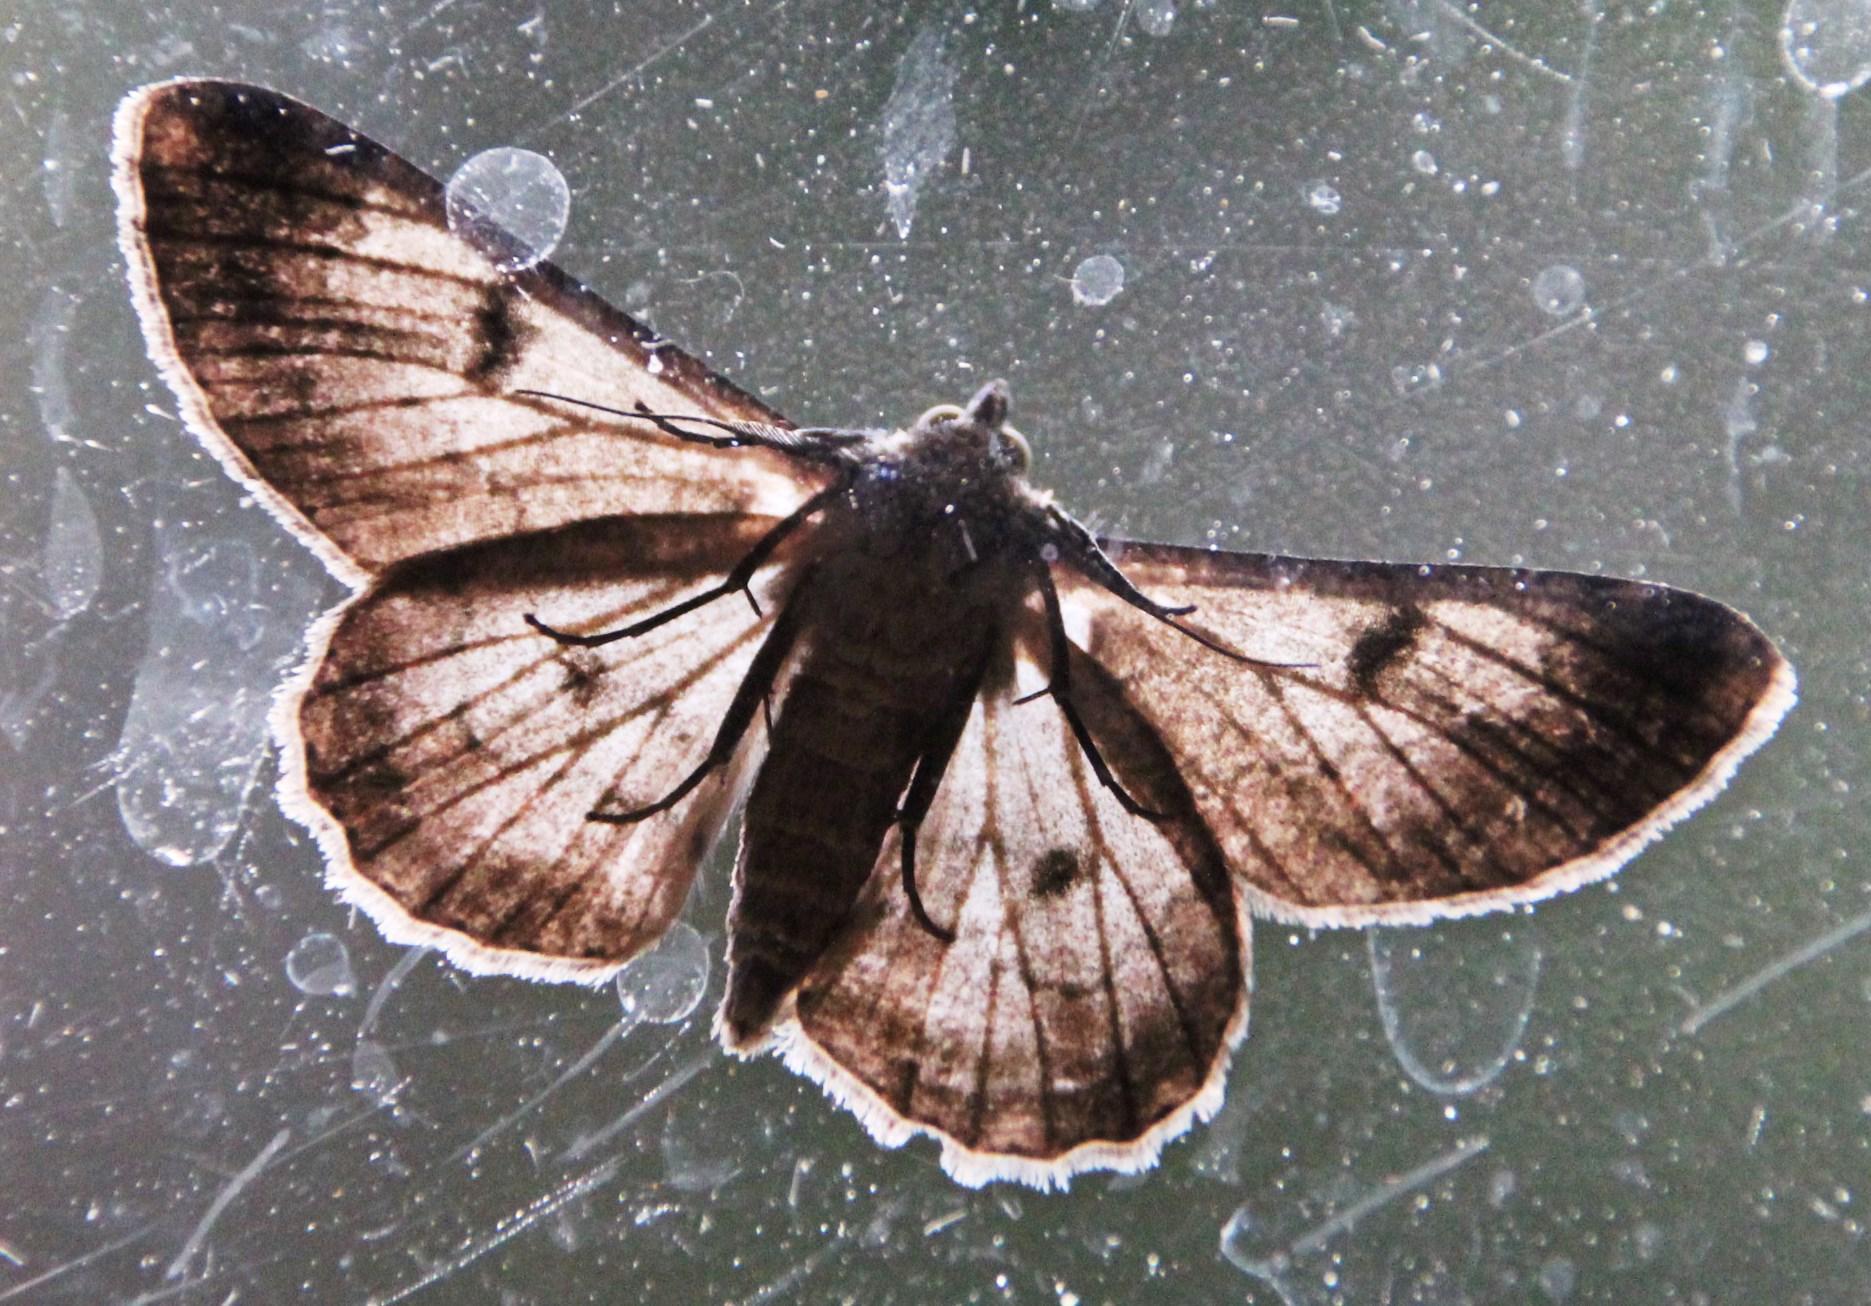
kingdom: Animalia
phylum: Arthropoda
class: Insecta
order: Lepidoptera
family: Geometridae
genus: Cleora
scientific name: Cleora acaciaria
